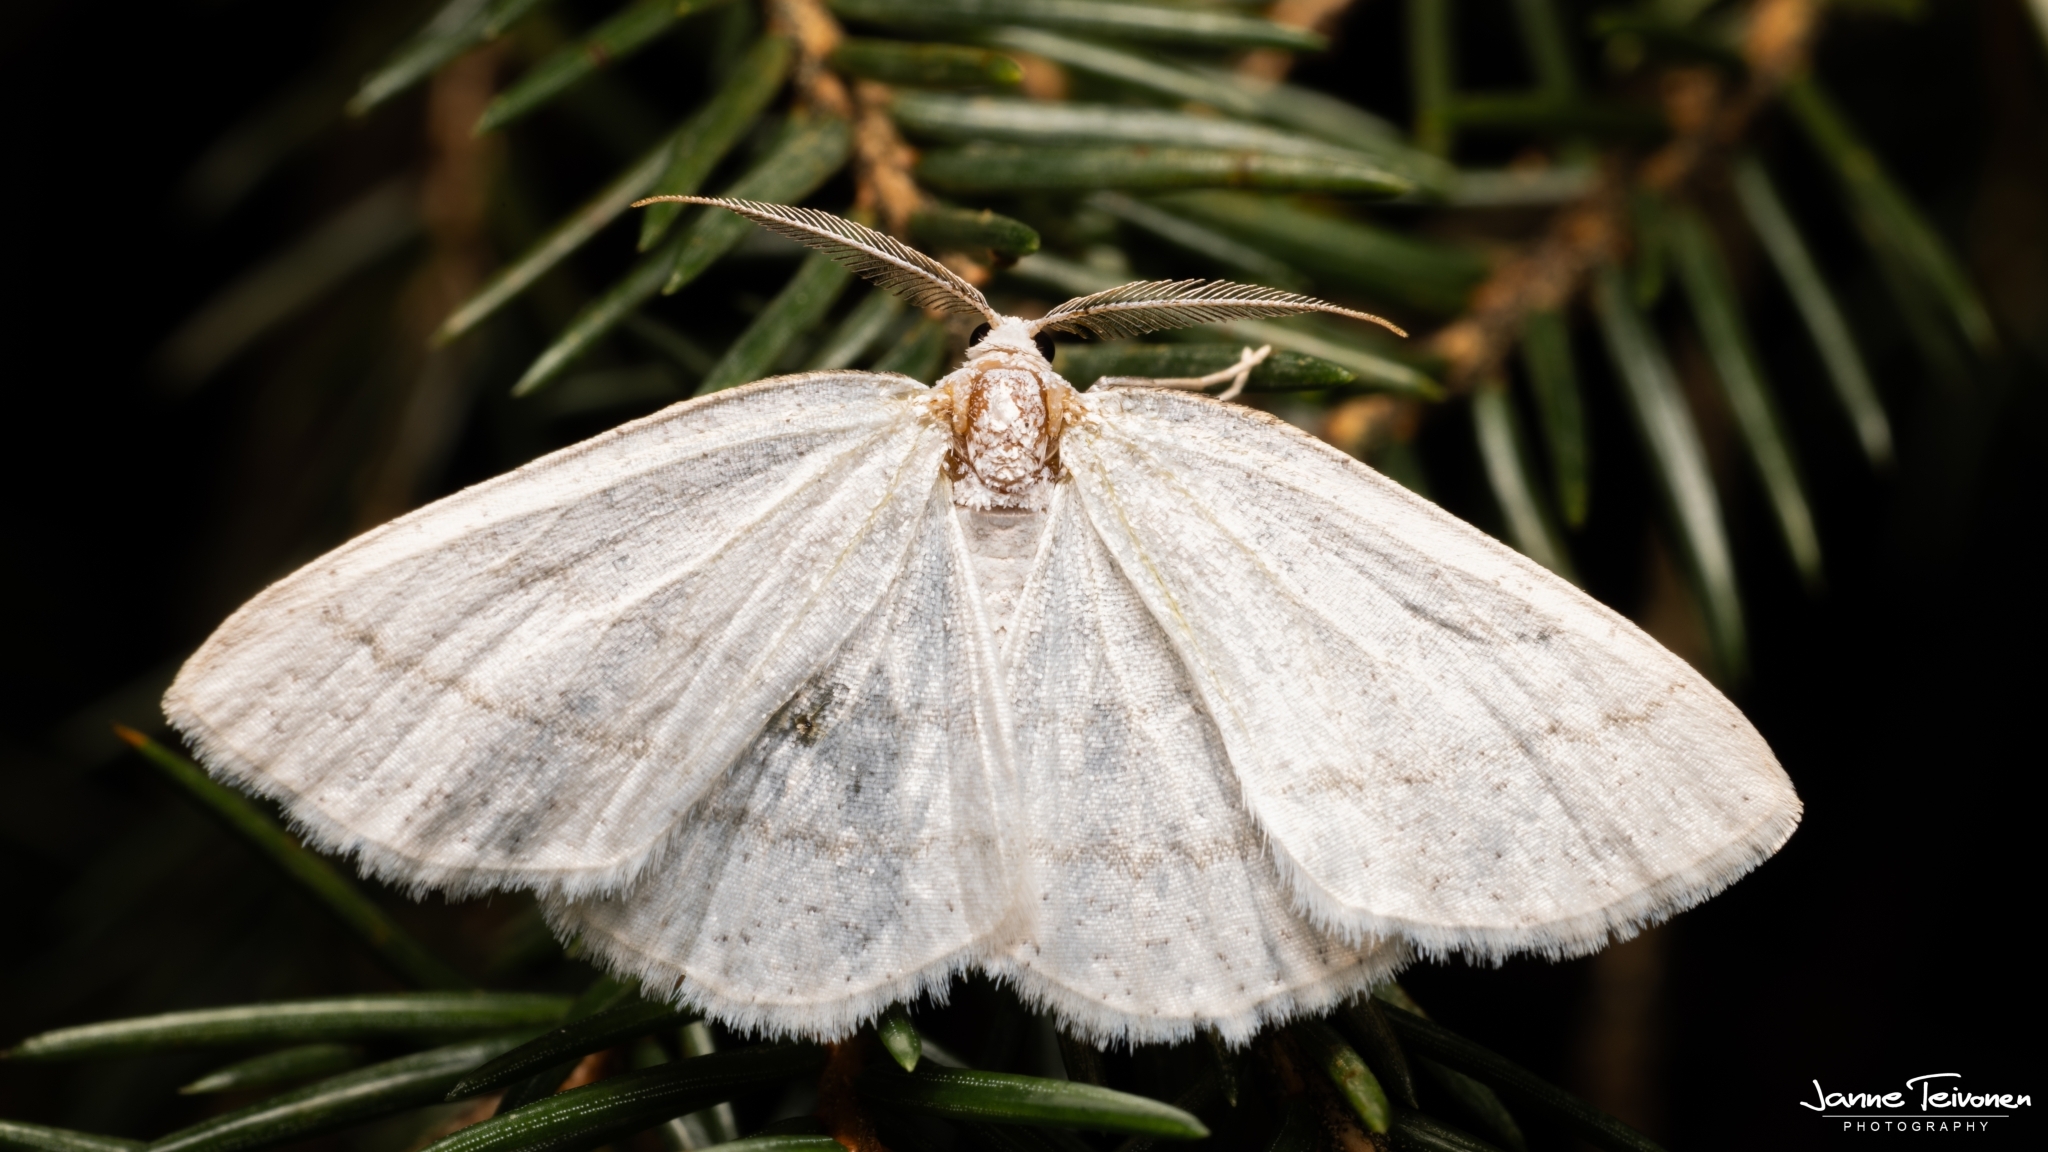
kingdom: Animalia
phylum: Arthropoda
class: Insecta
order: Lepidoptera
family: Geometridae
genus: Cabera
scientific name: Cabera pusaria
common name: Common white wave
